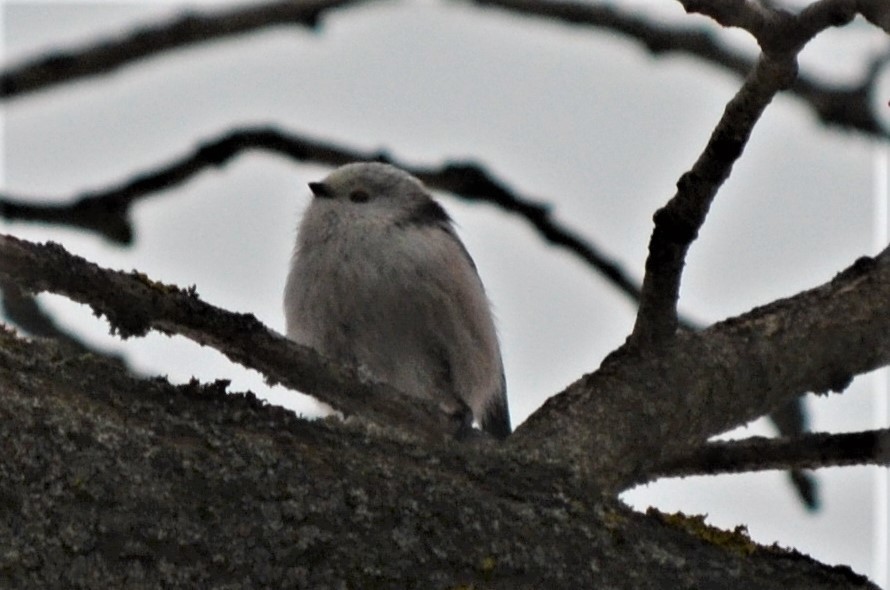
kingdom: Animalia
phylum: Chordata
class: Aves
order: Passeriformes
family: Aegithalidae
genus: Aegithalos
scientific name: Aegithalos caudatus
